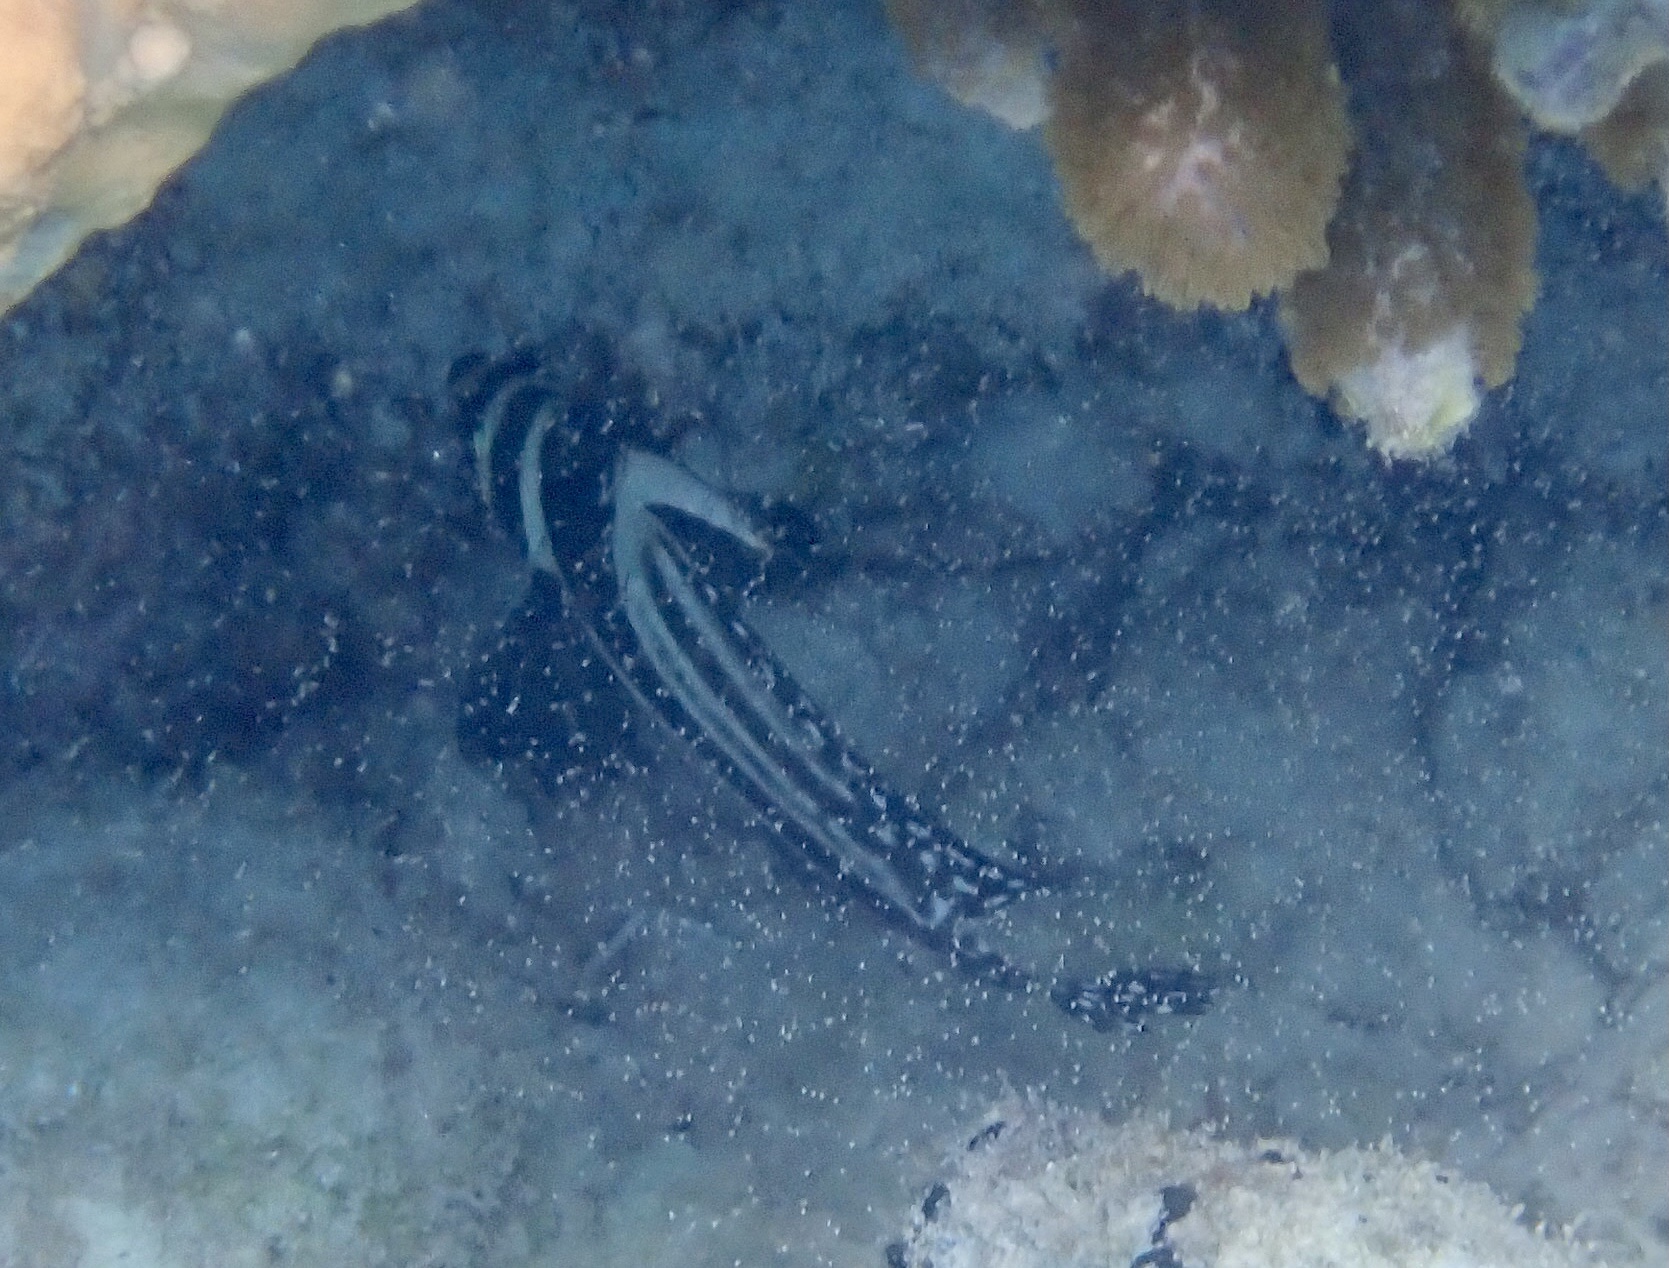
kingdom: Animalia
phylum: Chordata
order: Perciformes
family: Sciaenidae
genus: Equetus
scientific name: Equetus punctatus
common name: Spotted drum
